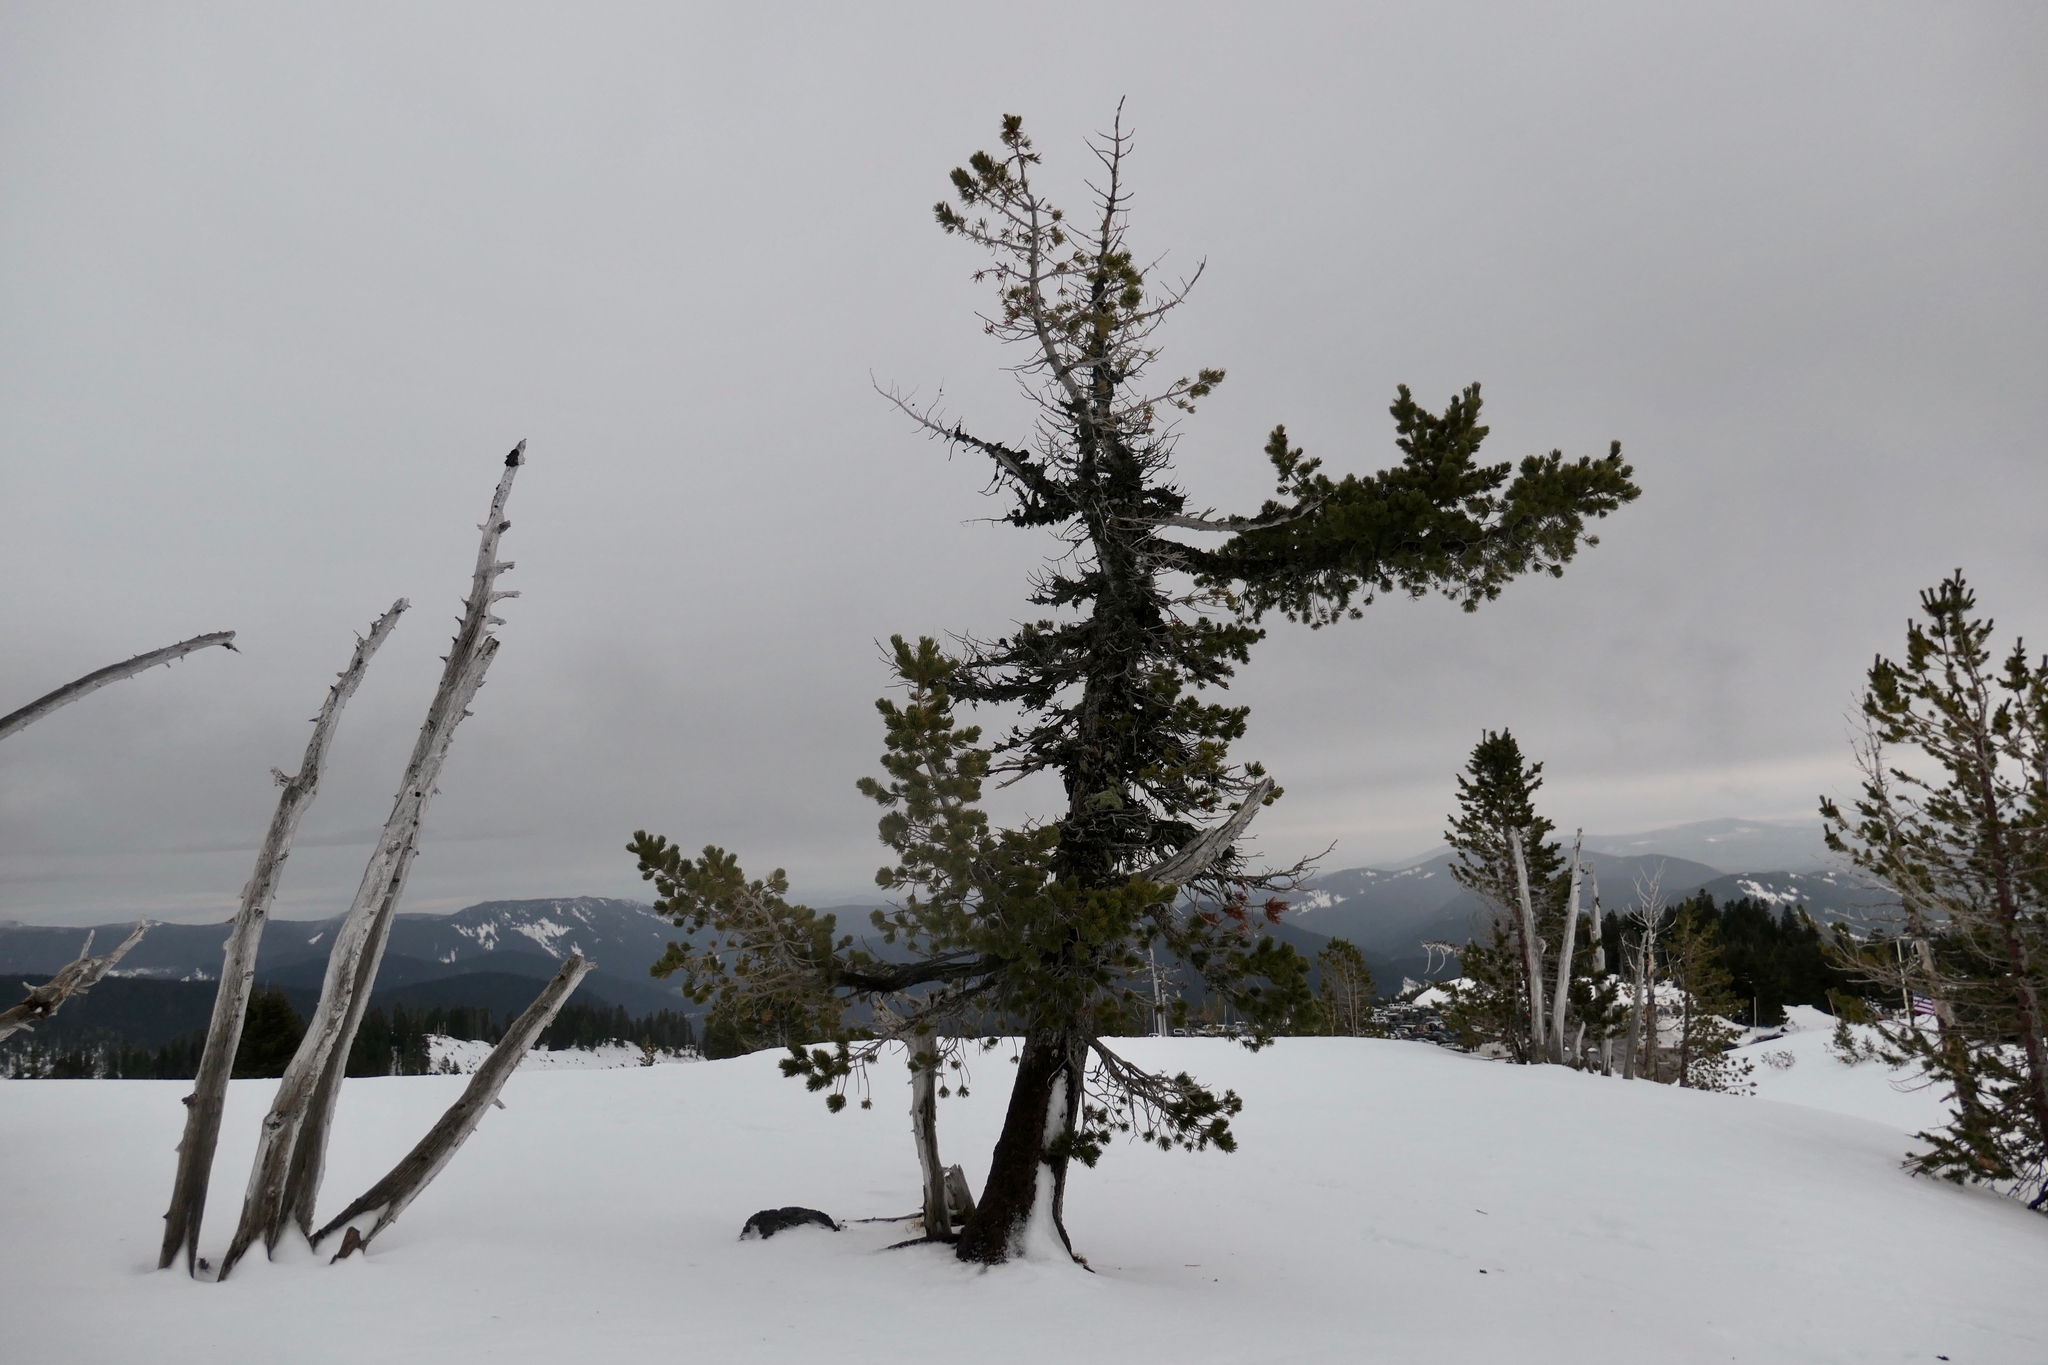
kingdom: Plantae
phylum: Tracheophyta
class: Pinopsida
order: Pinales
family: Pinaceae
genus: Pinus
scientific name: Pinus albicaulis
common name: Whitebark pine
